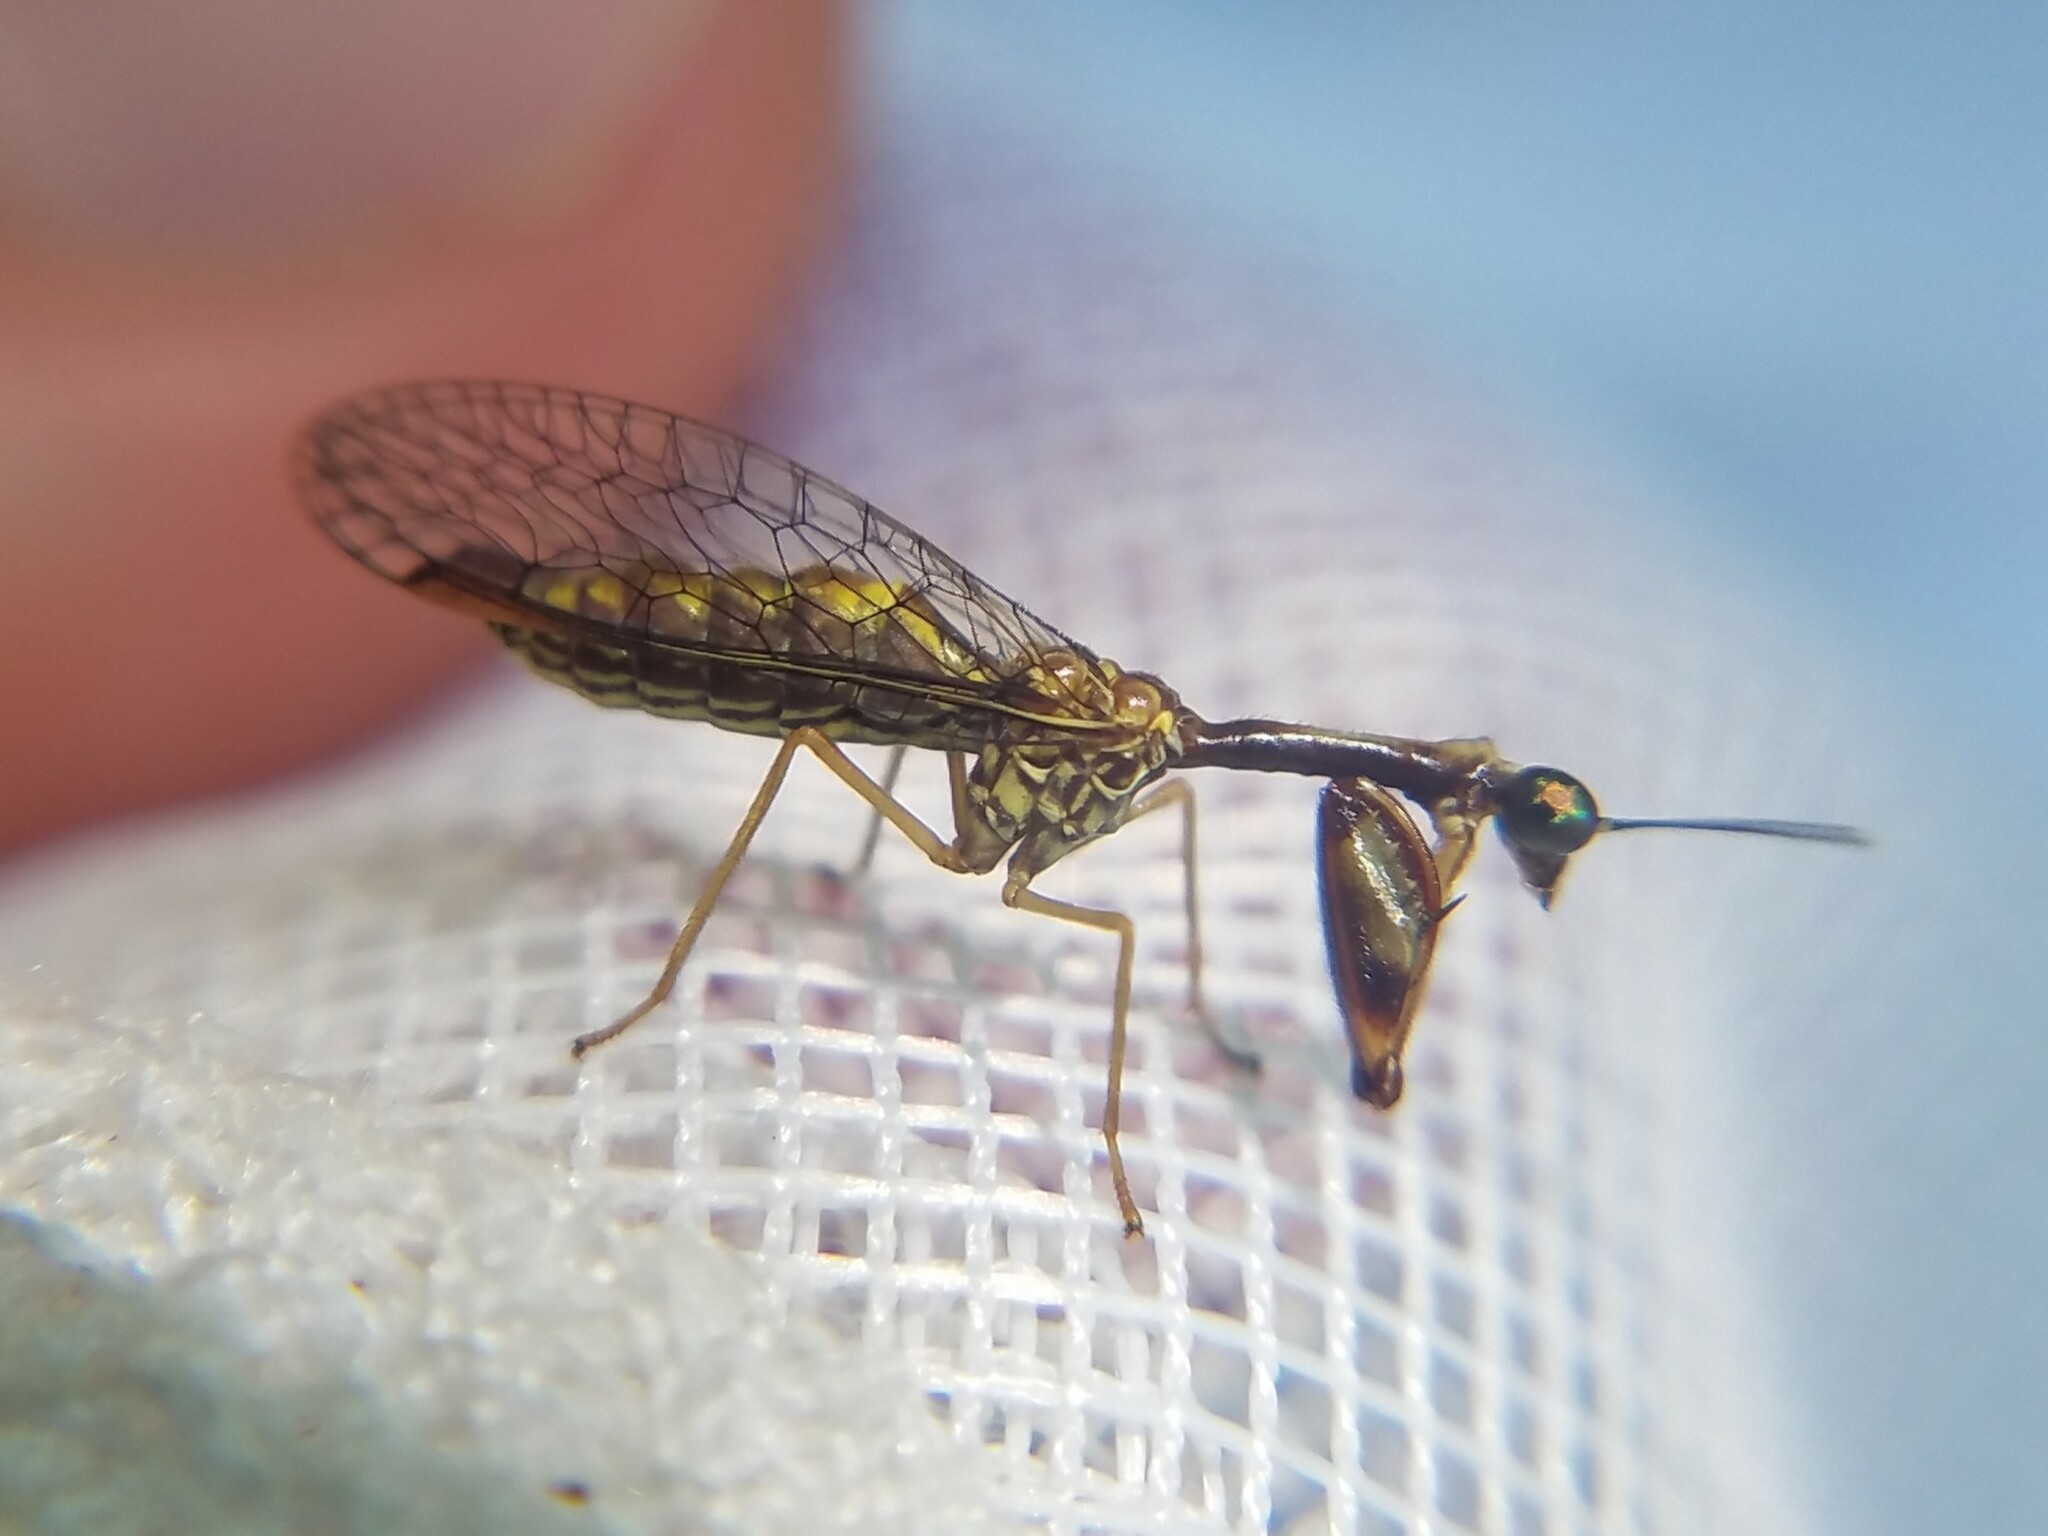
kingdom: Animalia
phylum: Arthropoda
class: Insecta
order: Neuroptera
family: Mantispidae
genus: Leptomantispa
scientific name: Leptomantispa pulchella
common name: Stevens's mantidfly
